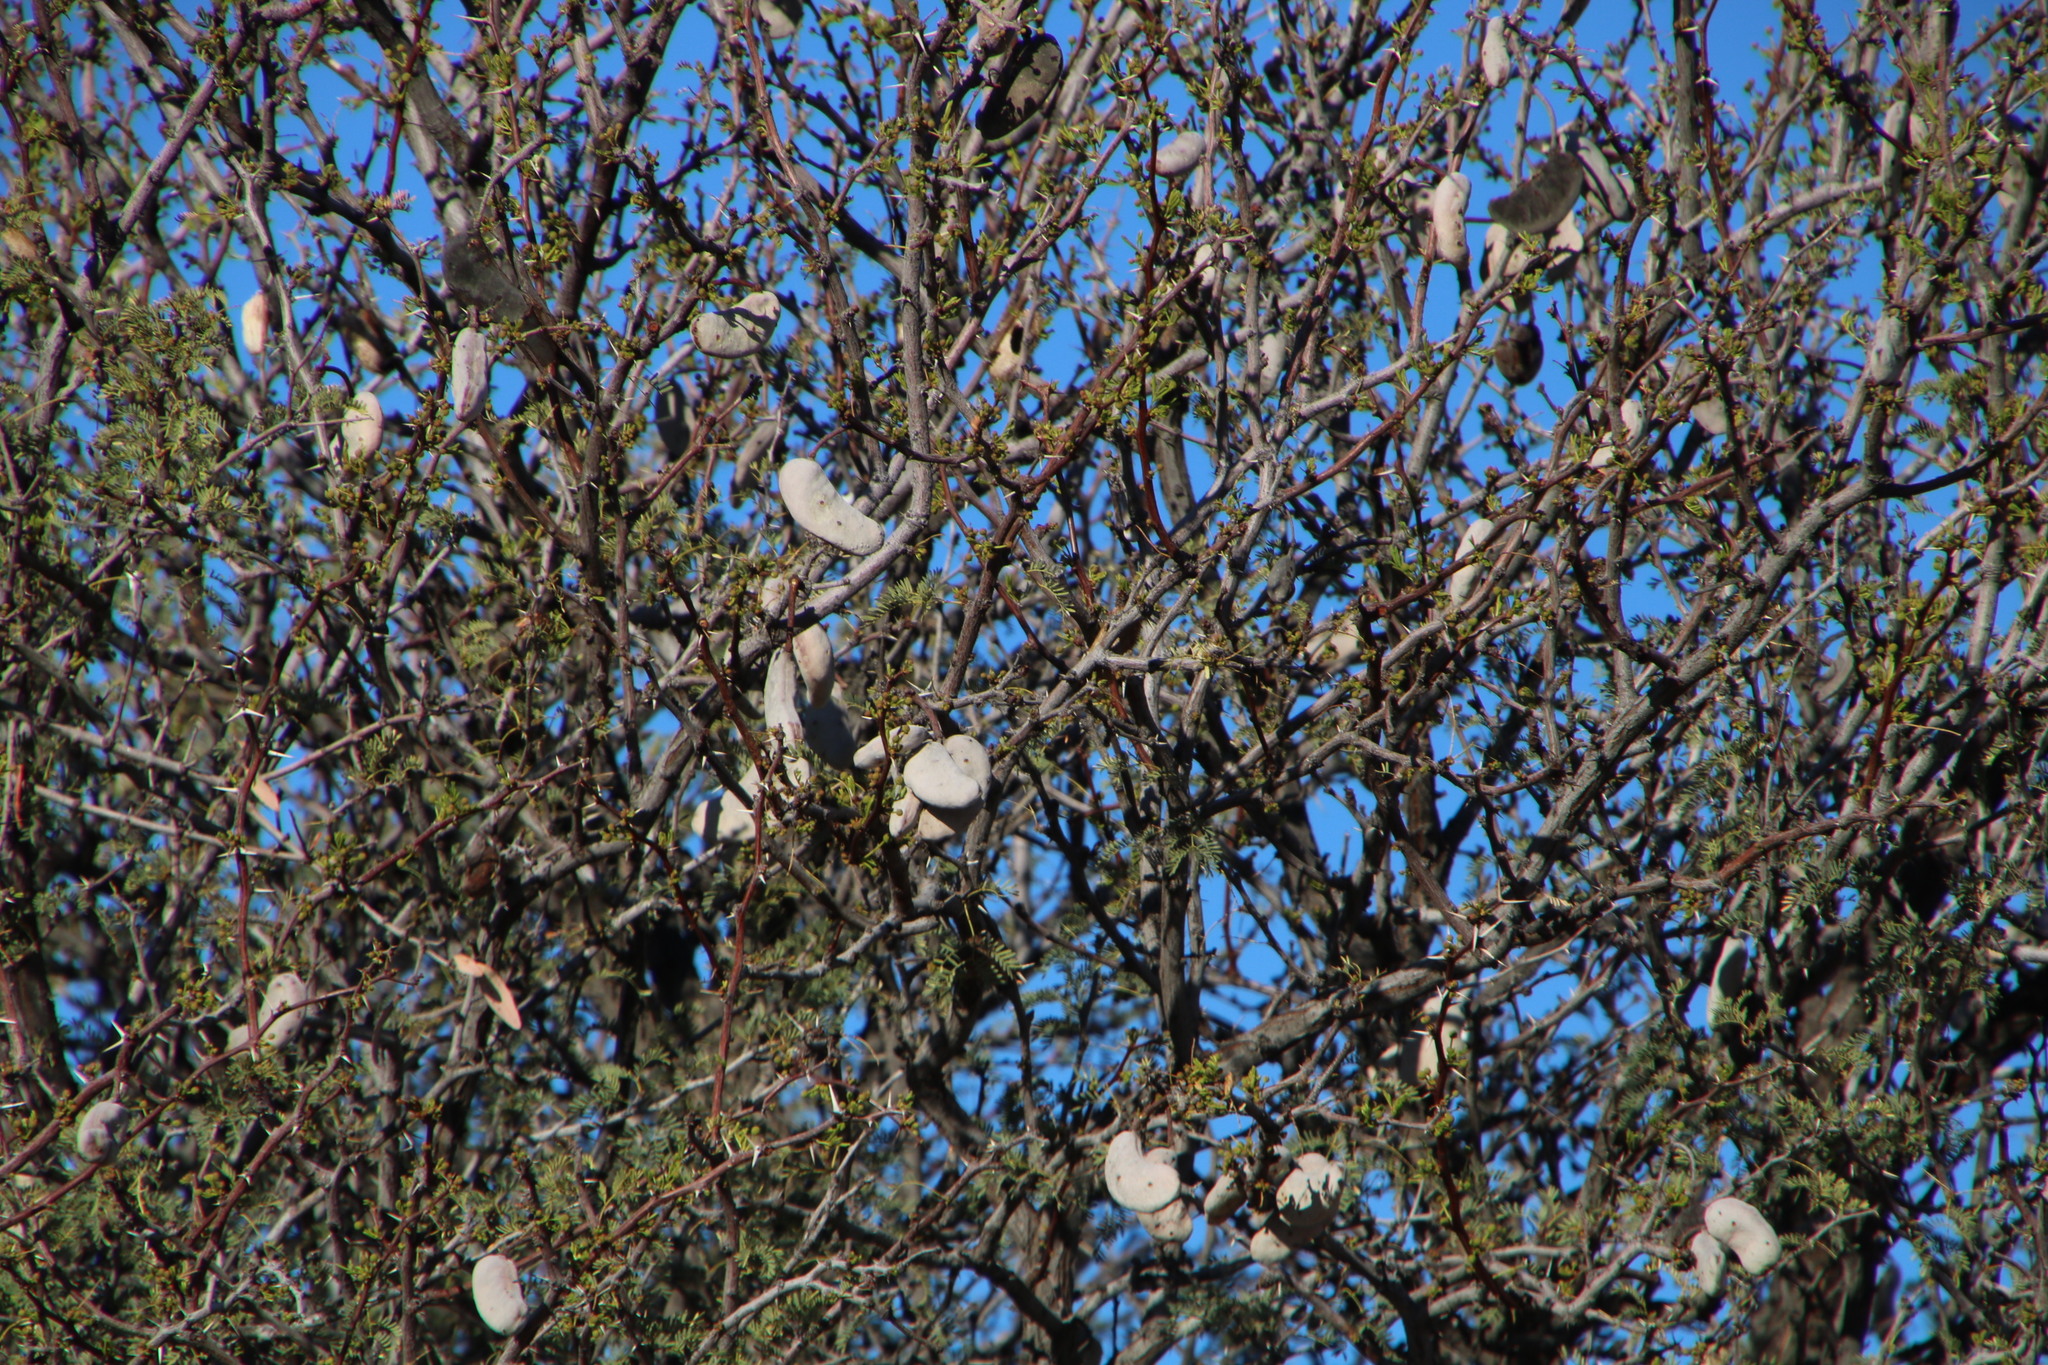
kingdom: Plantae
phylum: Tracheophyta
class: Magnoliopsida
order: Fabales
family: Fabaceae
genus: Vachellia
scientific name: Vachellia erioloba
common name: Camel thorn
